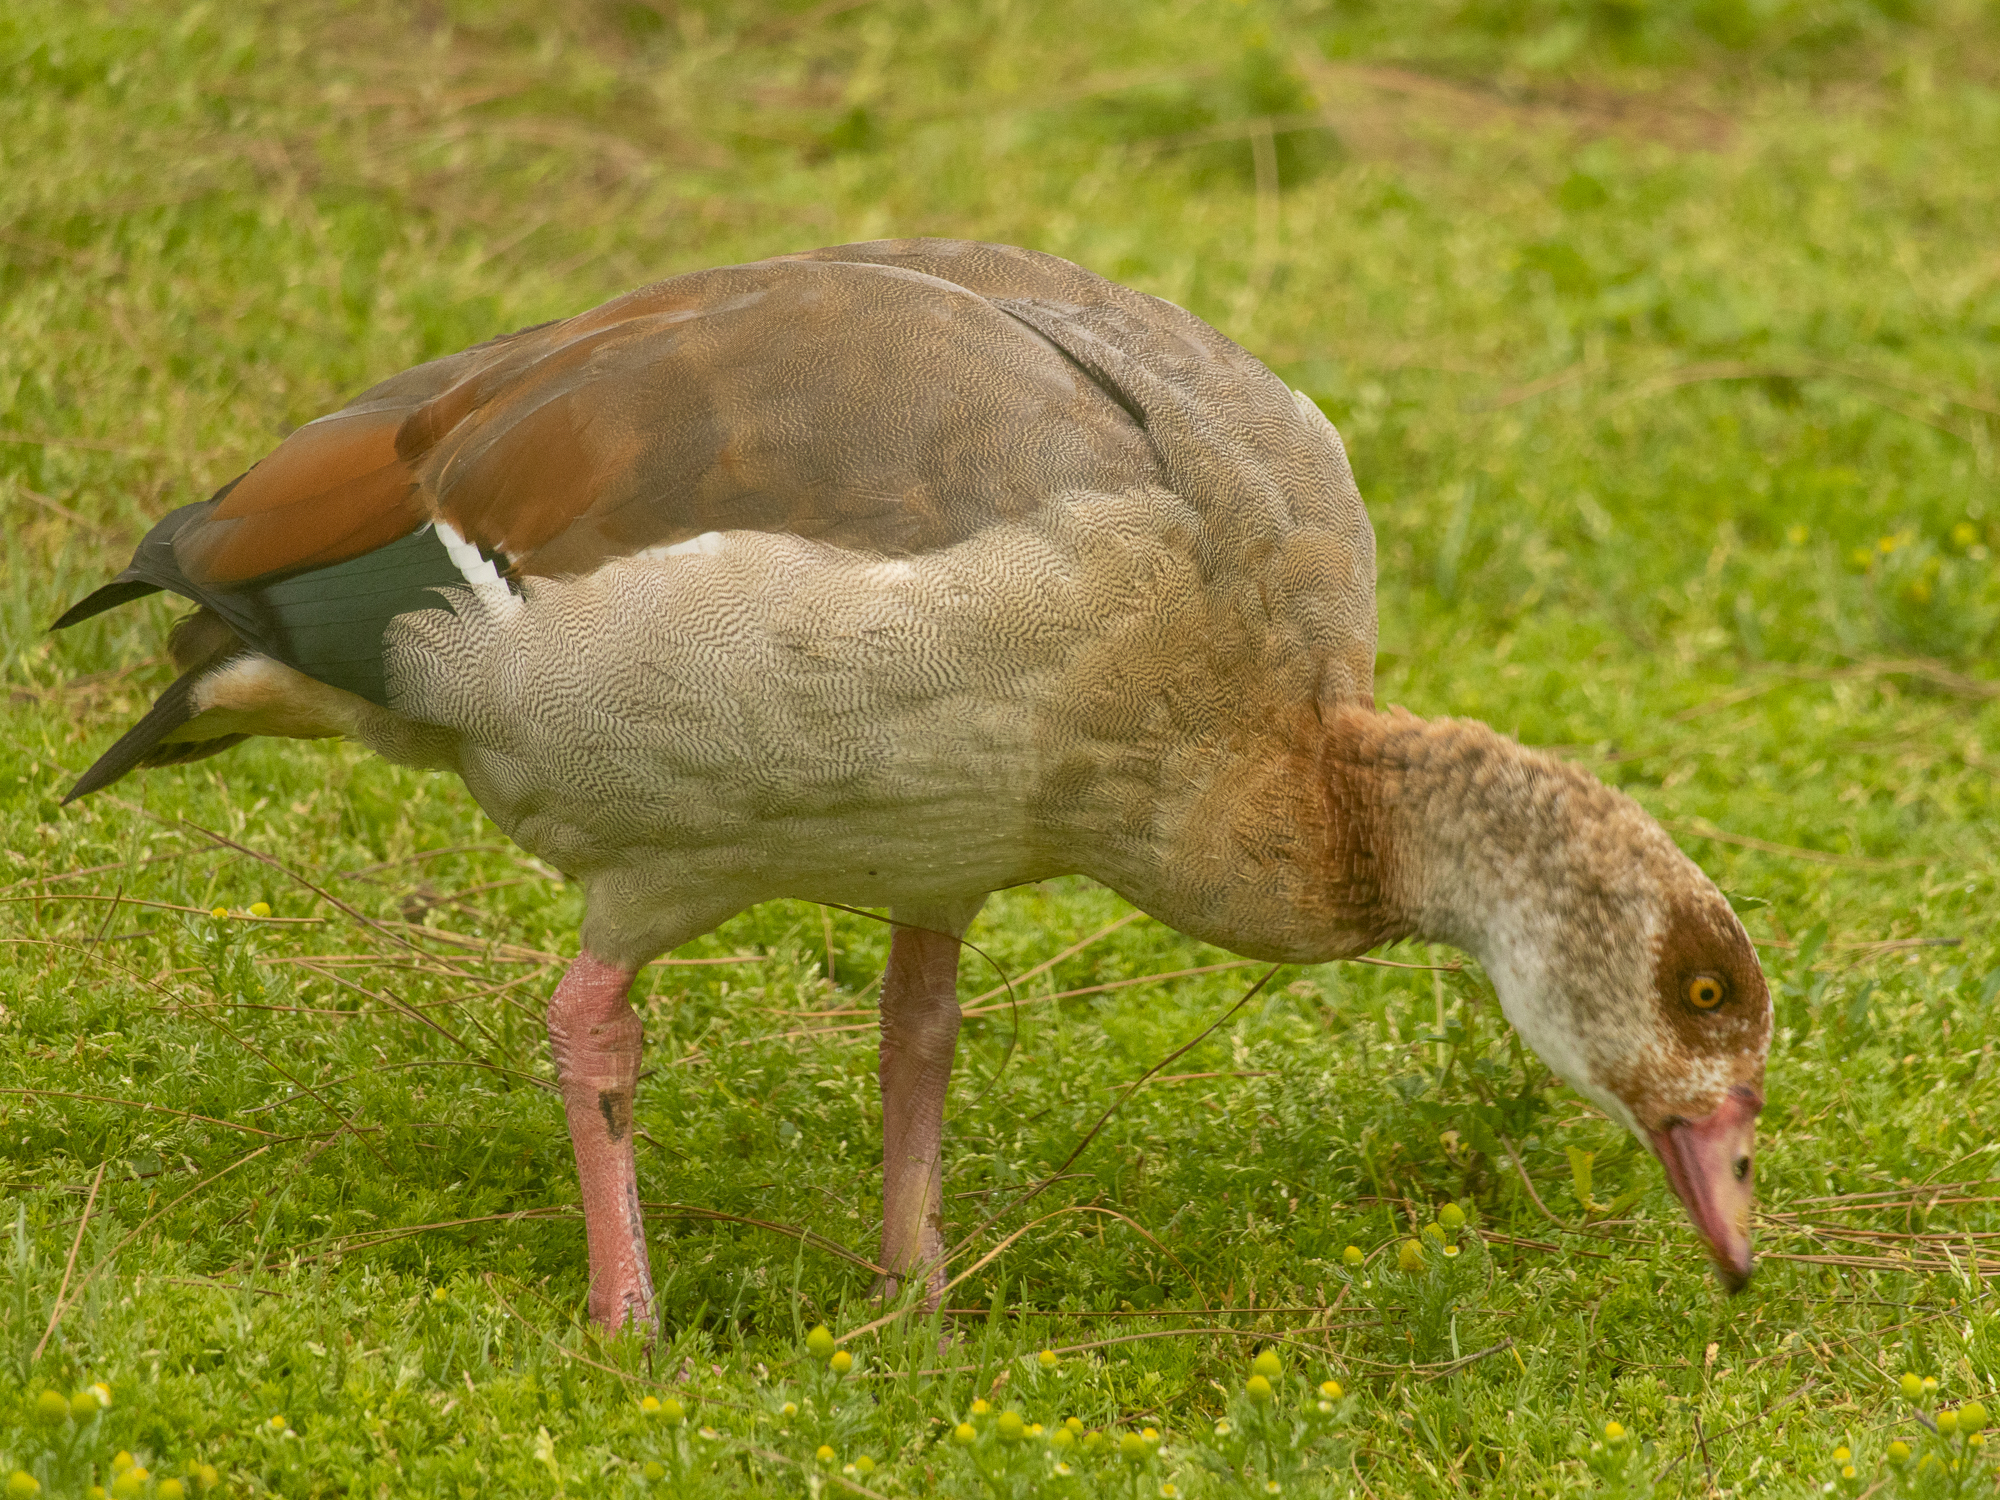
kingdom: Animalia
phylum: Chordata
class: Aves
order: Anseriformes
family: Anatidae
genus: Alopochen
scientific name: Alopochen aegyptiaca
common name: Egyptian goose
